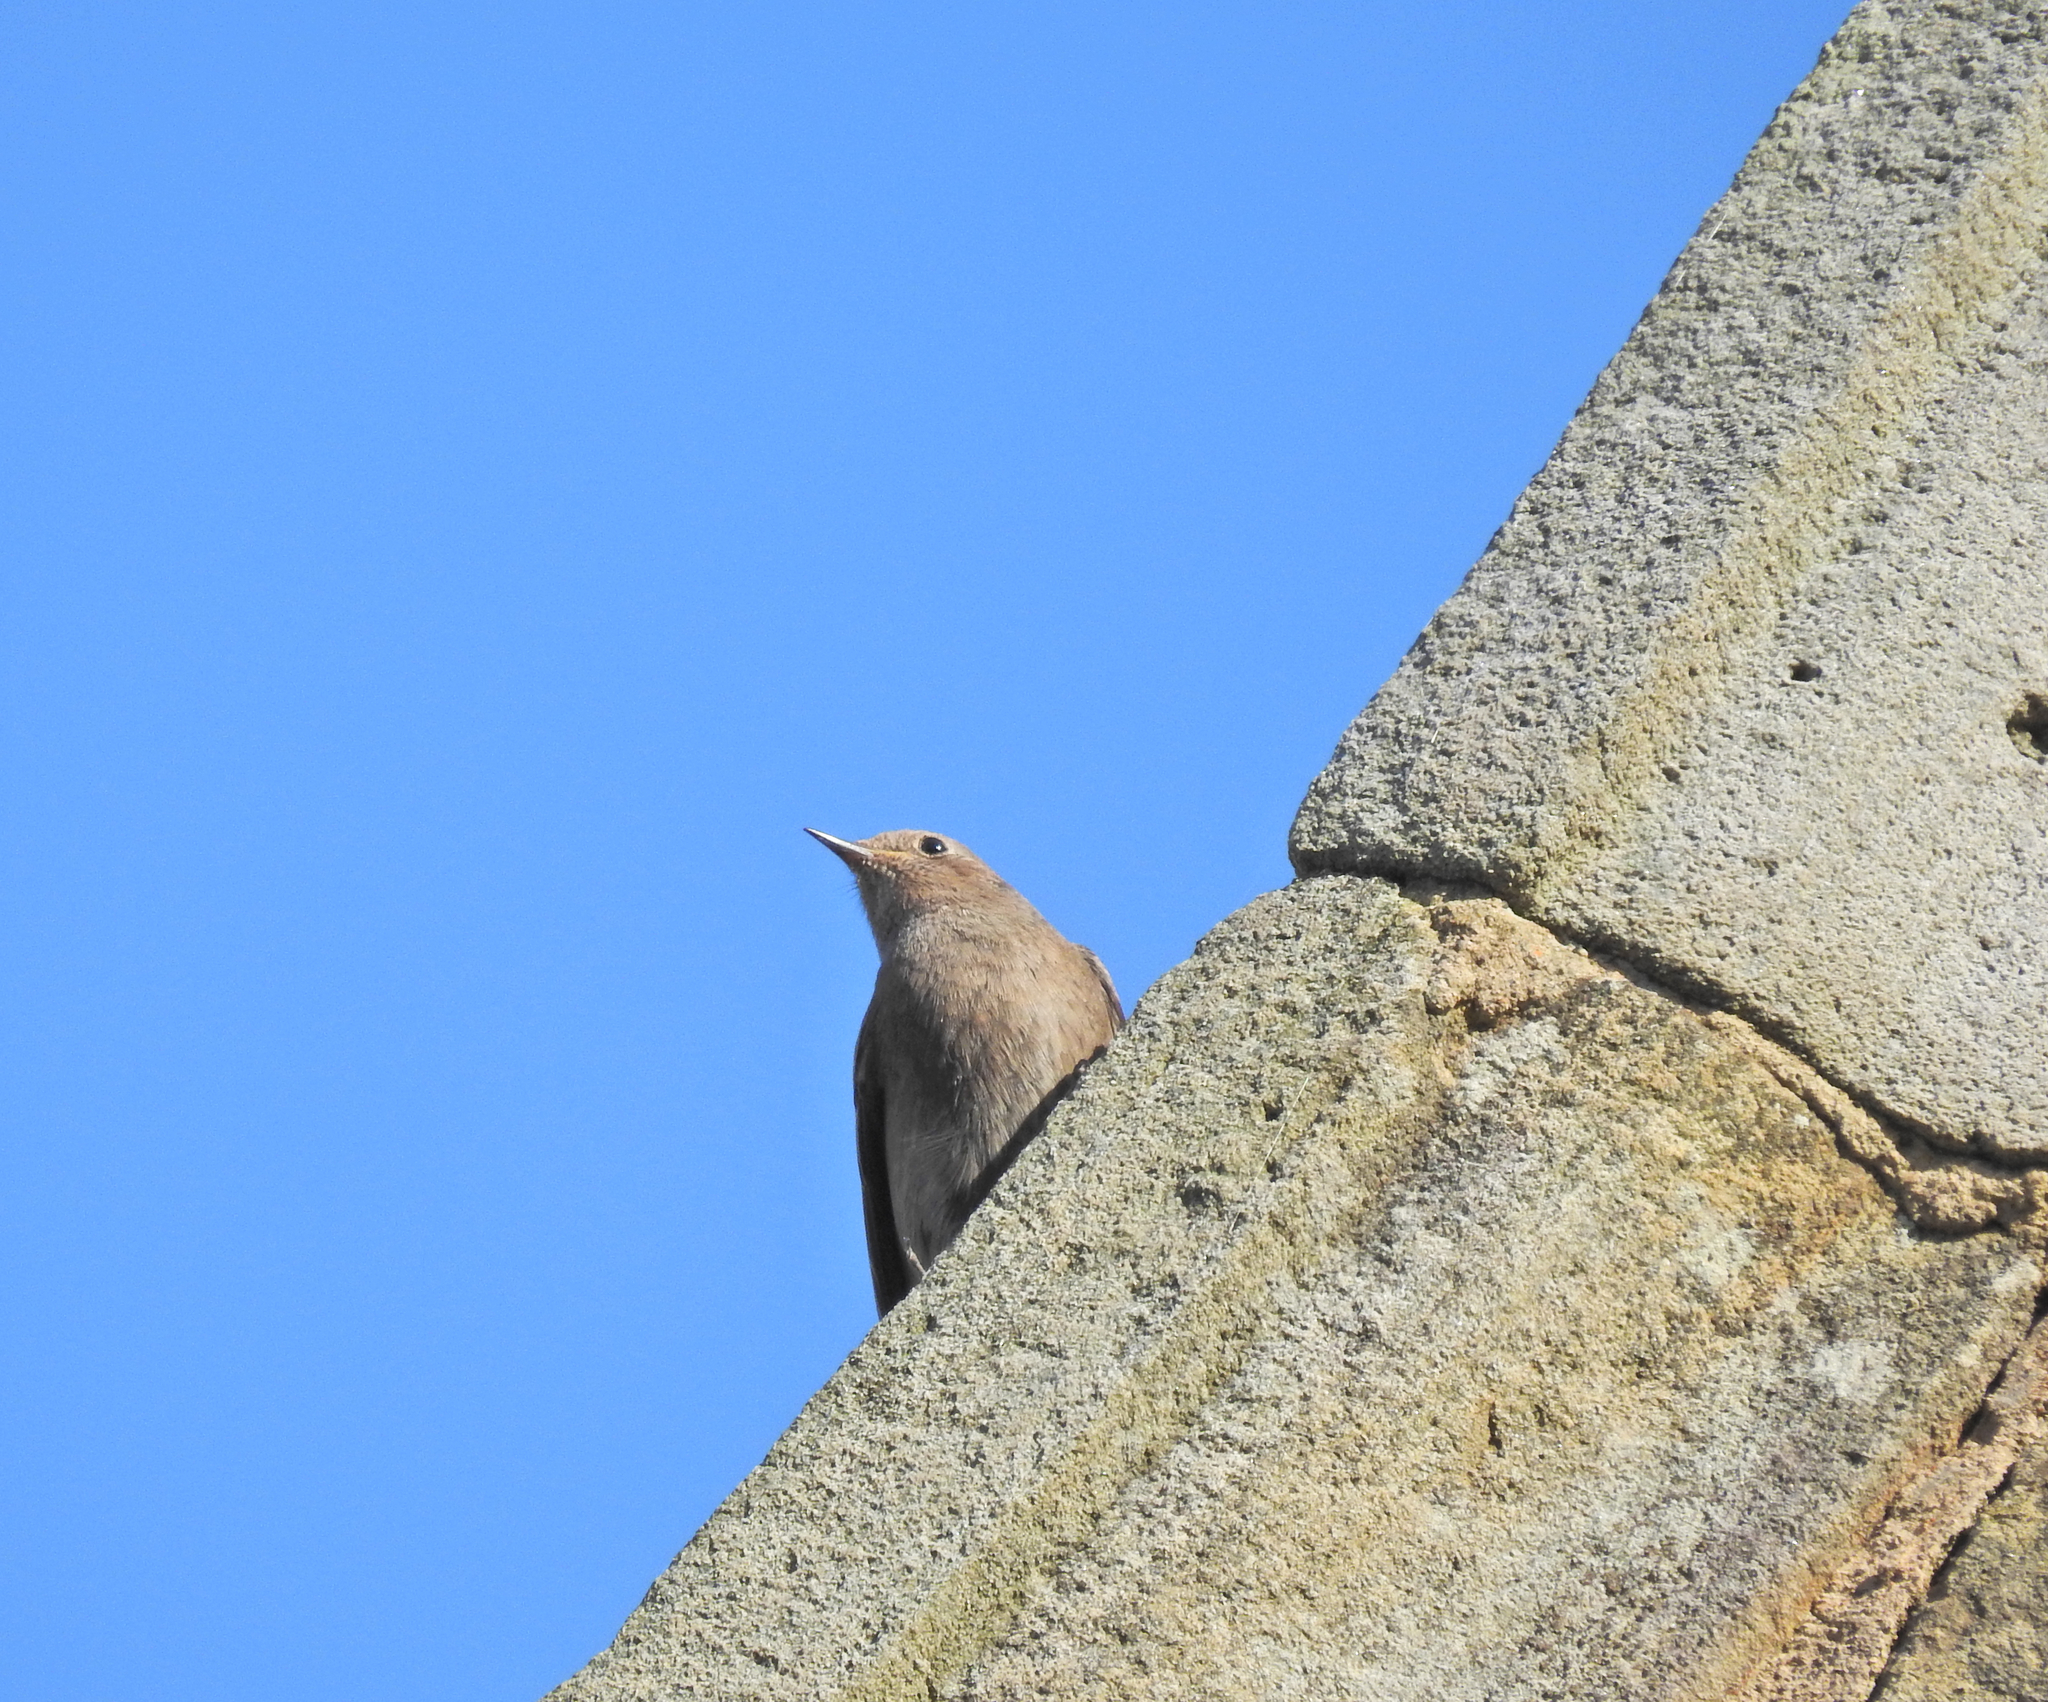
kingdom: Animalia
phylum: Chordata
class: Aves
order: Passeriformes
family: Muscicapidae
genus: Phoenicurus
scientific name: Phoenicurus ochruros
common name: Black redstart
